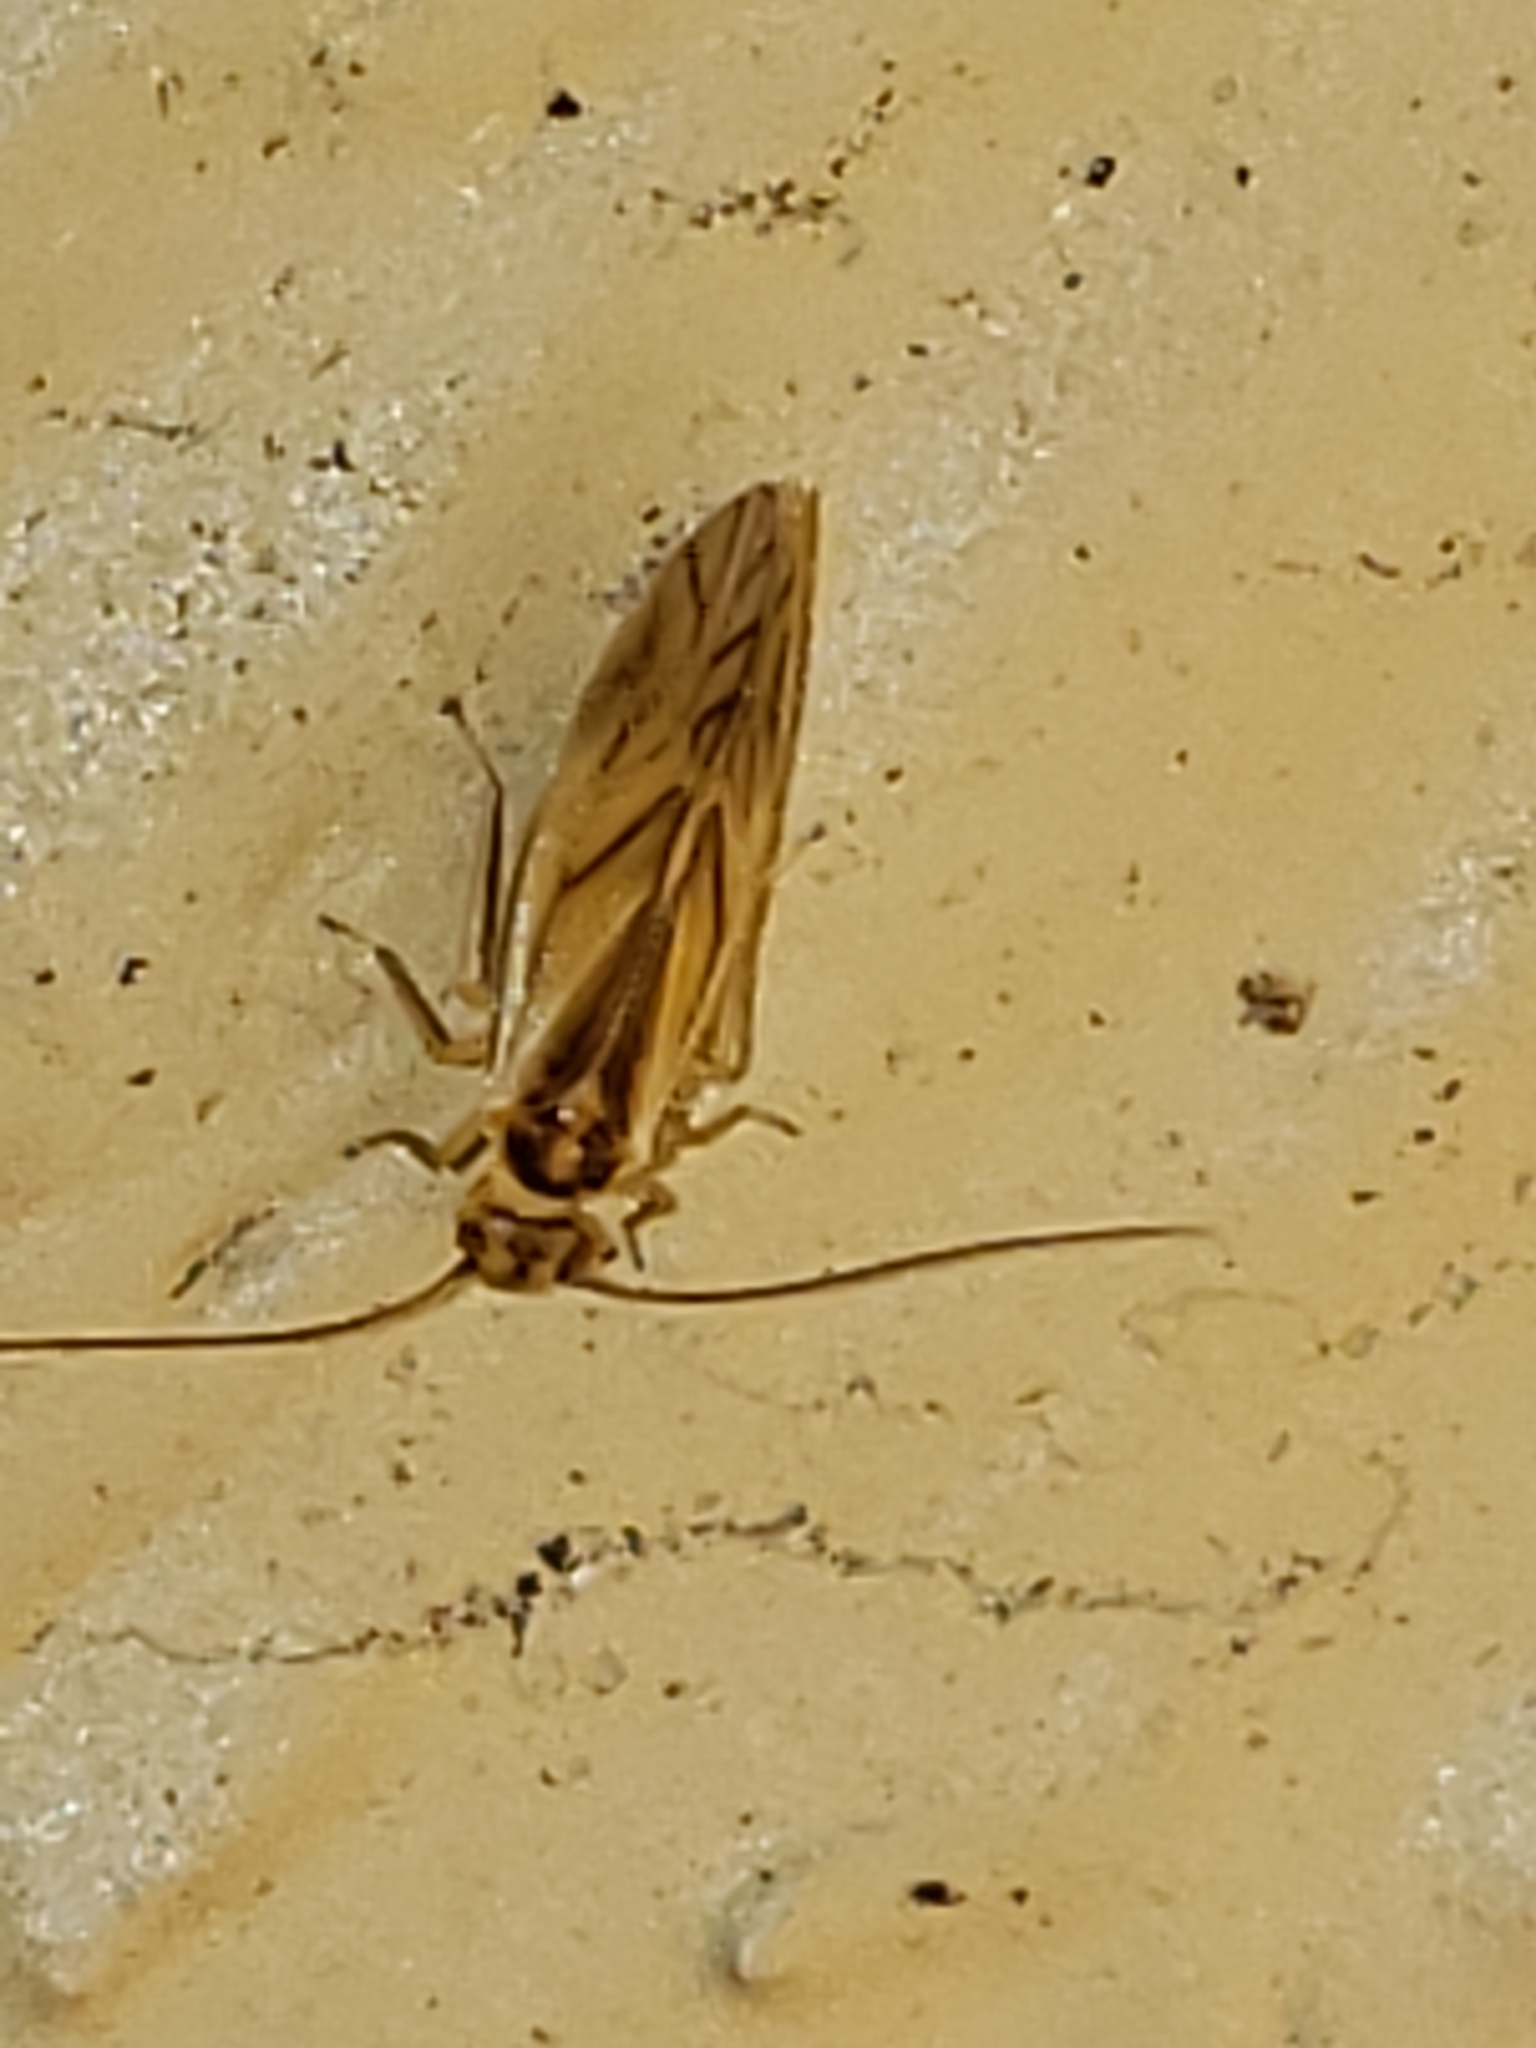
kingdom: Animalia
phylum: Arthropoda
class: Insecta
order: Psocodea
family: Caeciliusidae
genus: Valenzuela
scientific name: Valenzuela flavidus
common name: Yellow barklouse
